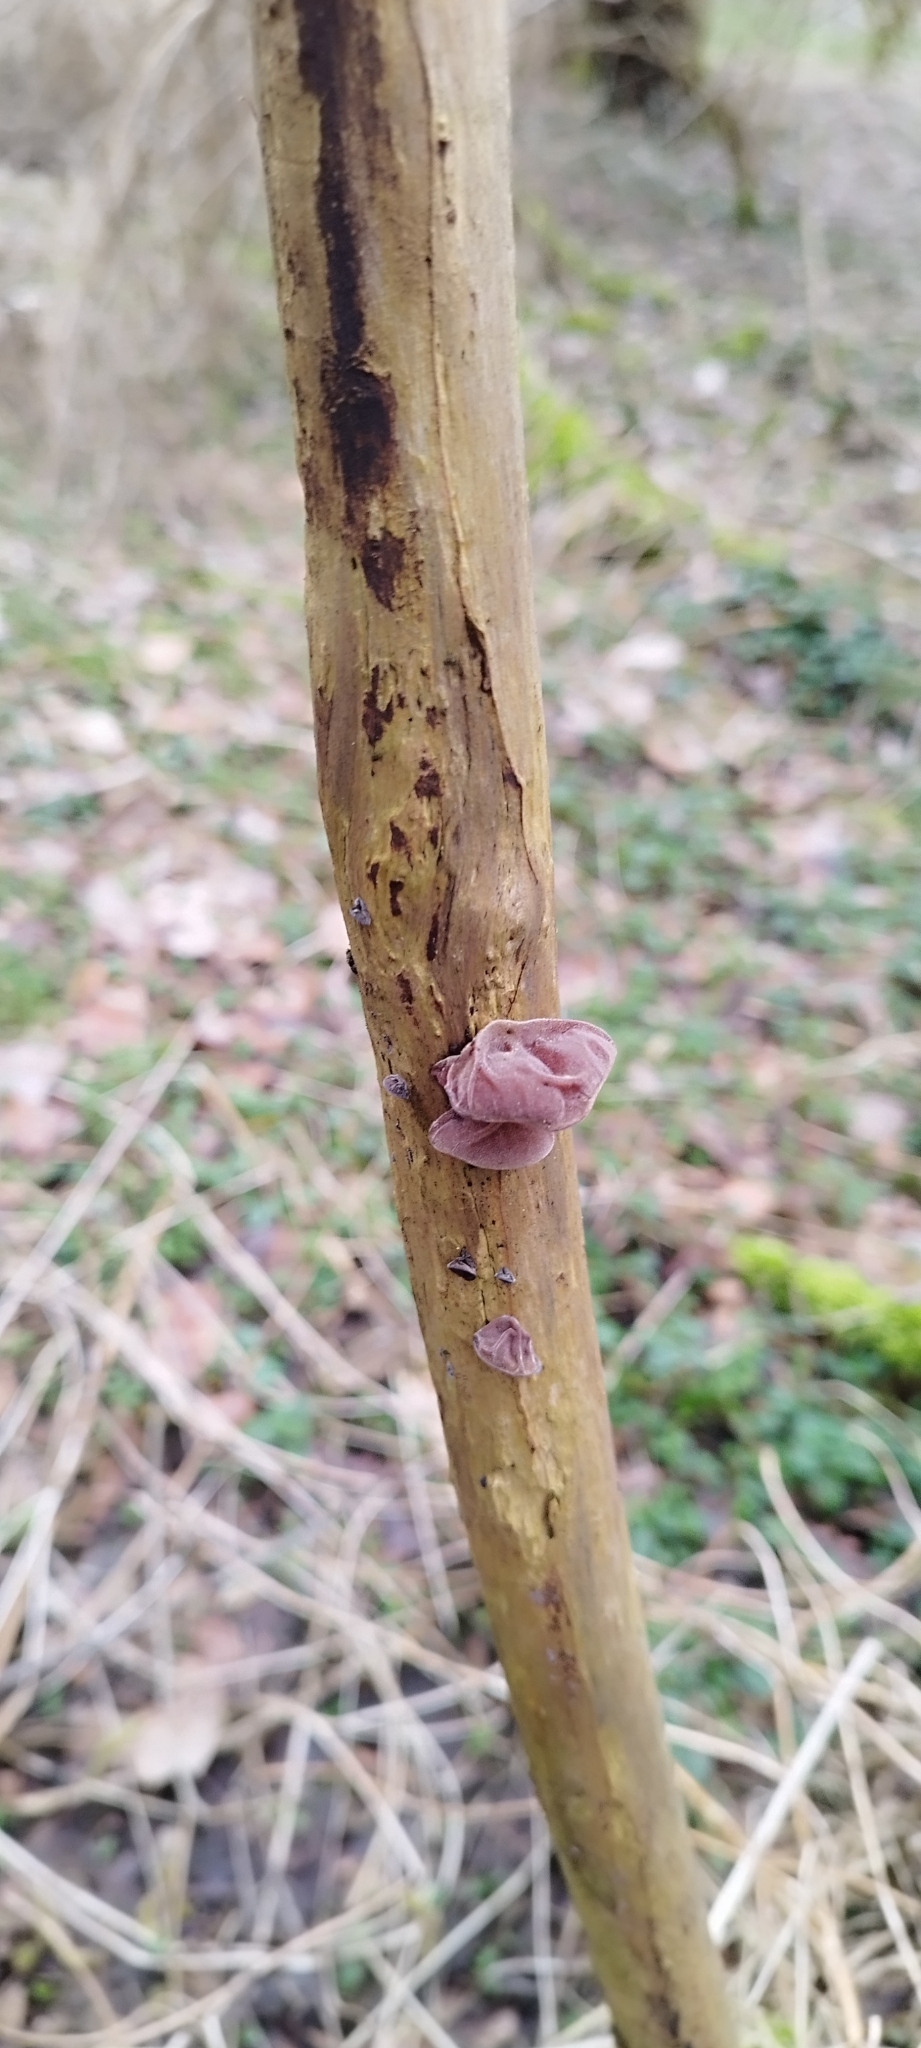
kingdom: Fungi
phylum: Basidiomycota
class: Agaricomycetes
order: Auriculariales
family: Auriculariaceae
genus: Auricularia
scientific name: Auricularia auricula-judae
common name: Jelly ear
